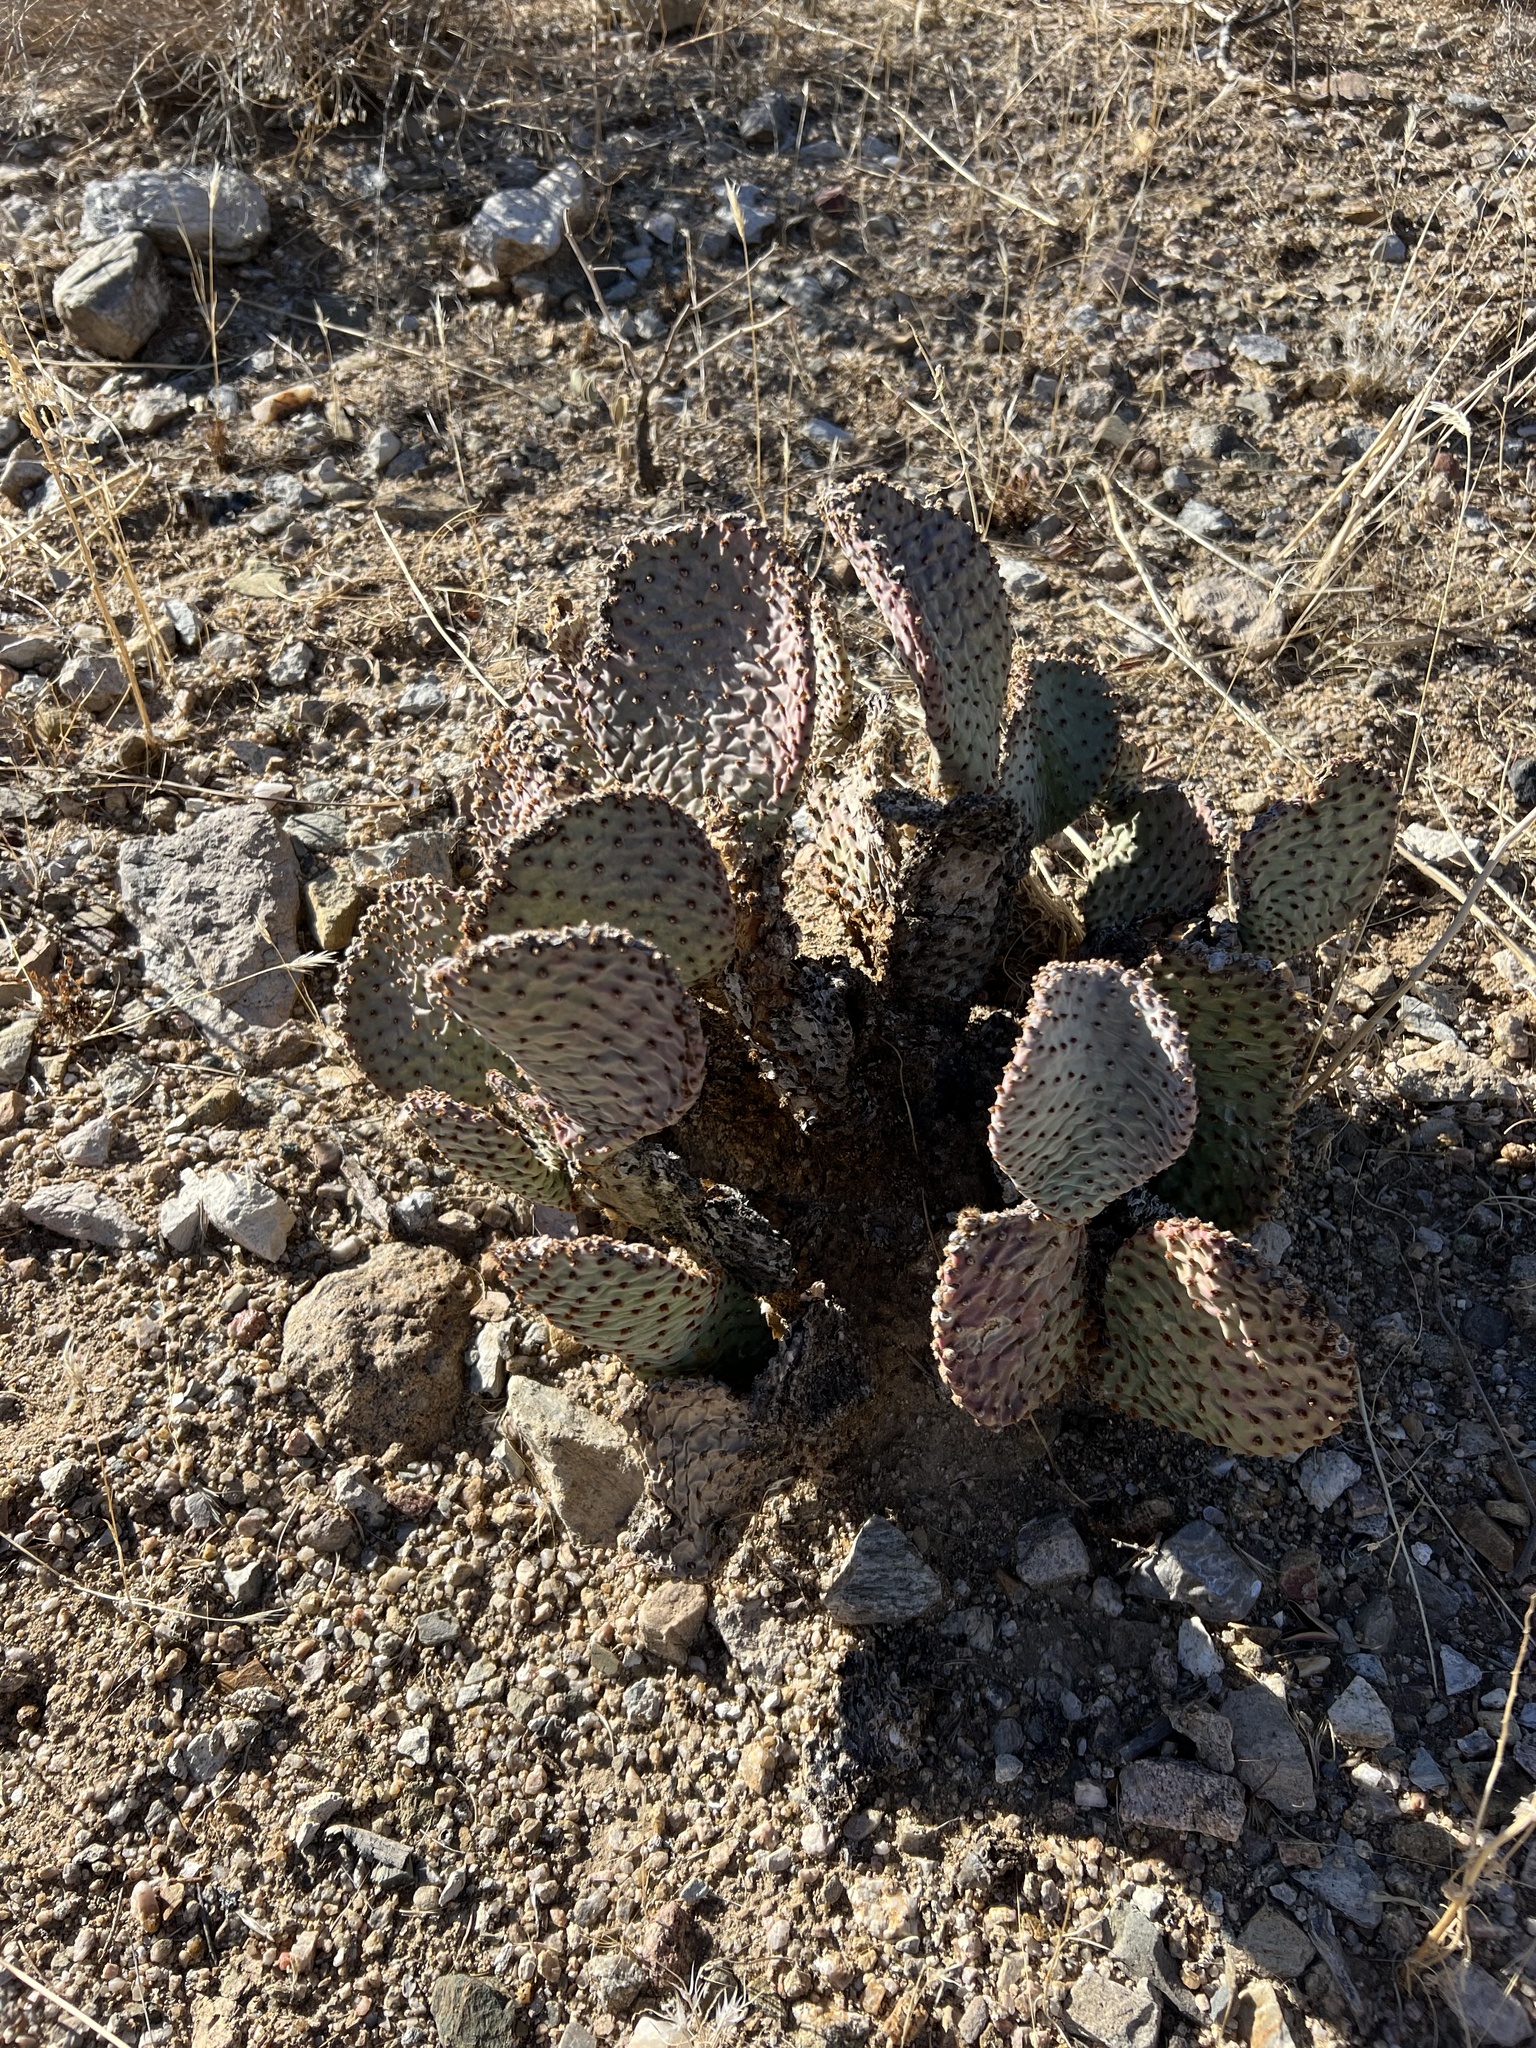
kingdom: Plantae
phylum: Tracheophyta
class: Magnoliopsida
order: Caryophyllales
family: Cactaceae
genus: Opuntia
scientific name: Opuntia basilaris
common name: Beavertail prickly-pear
